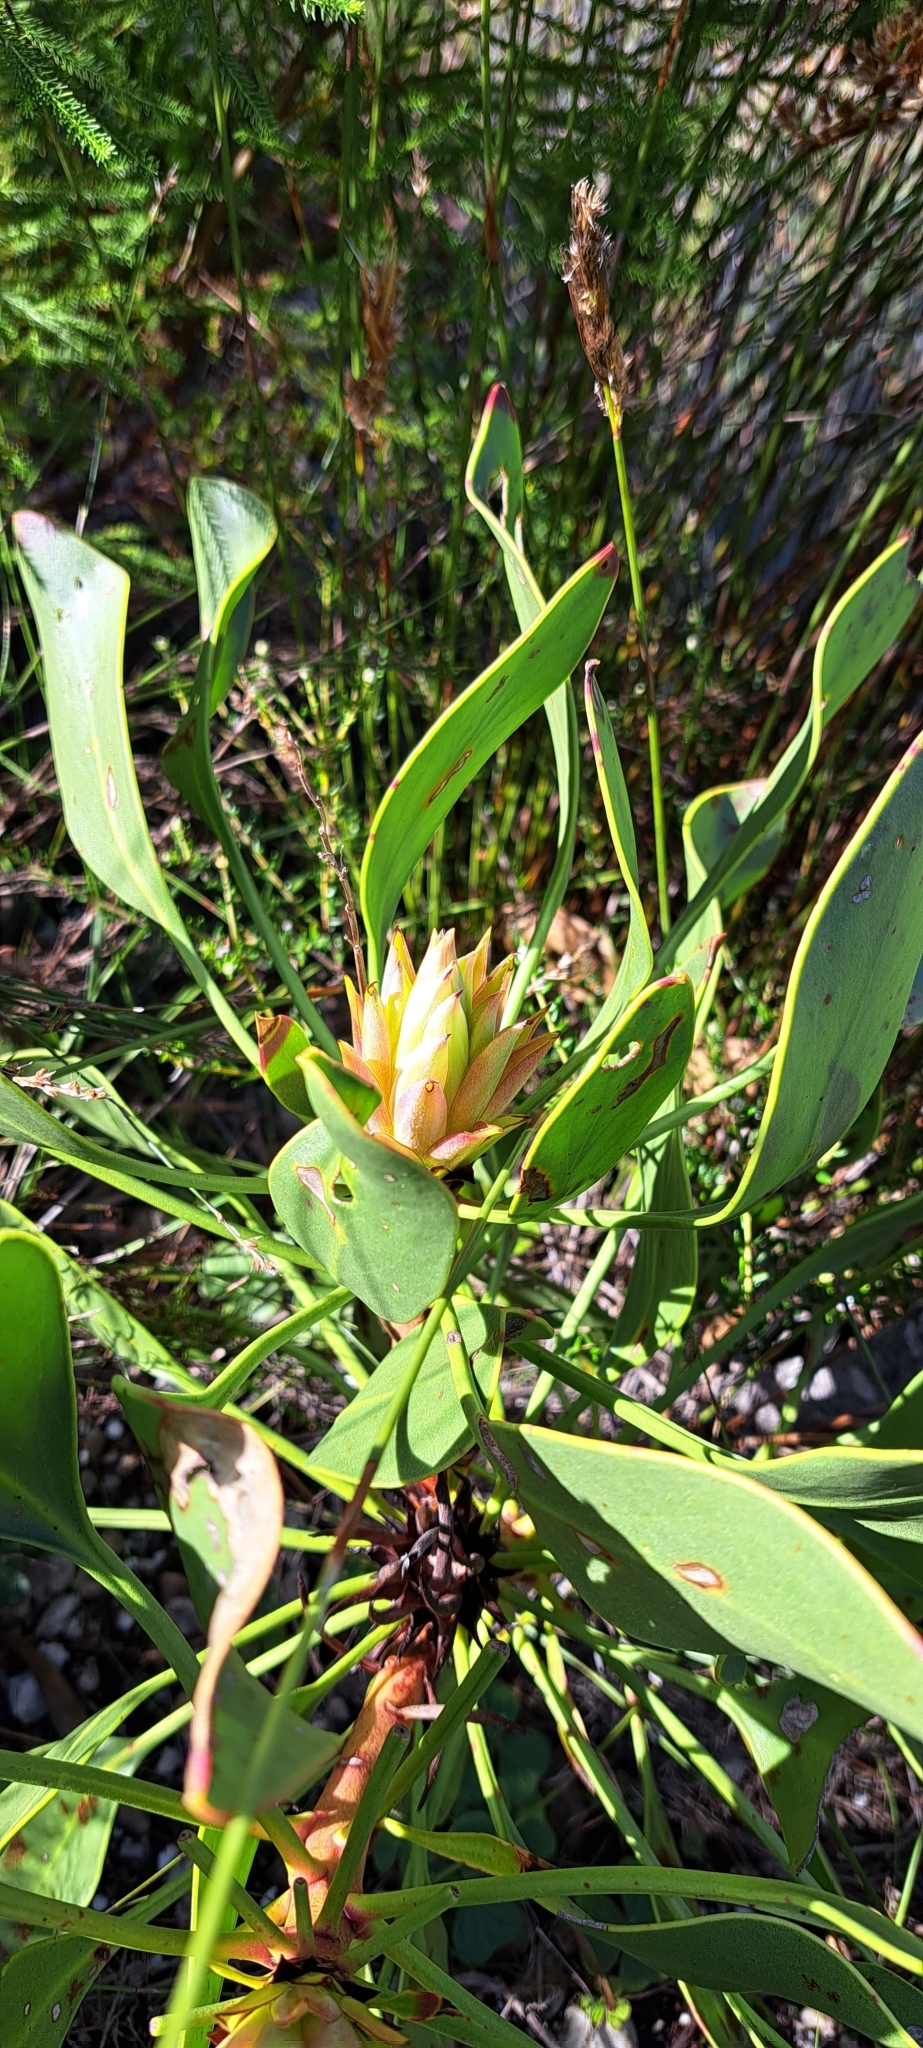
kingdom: Plantae
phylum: Tracheophyta
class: Magnoliopsida
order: Proteales
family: Proteaceae
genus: Protea
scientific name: Protea cynaroides
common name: King protea
